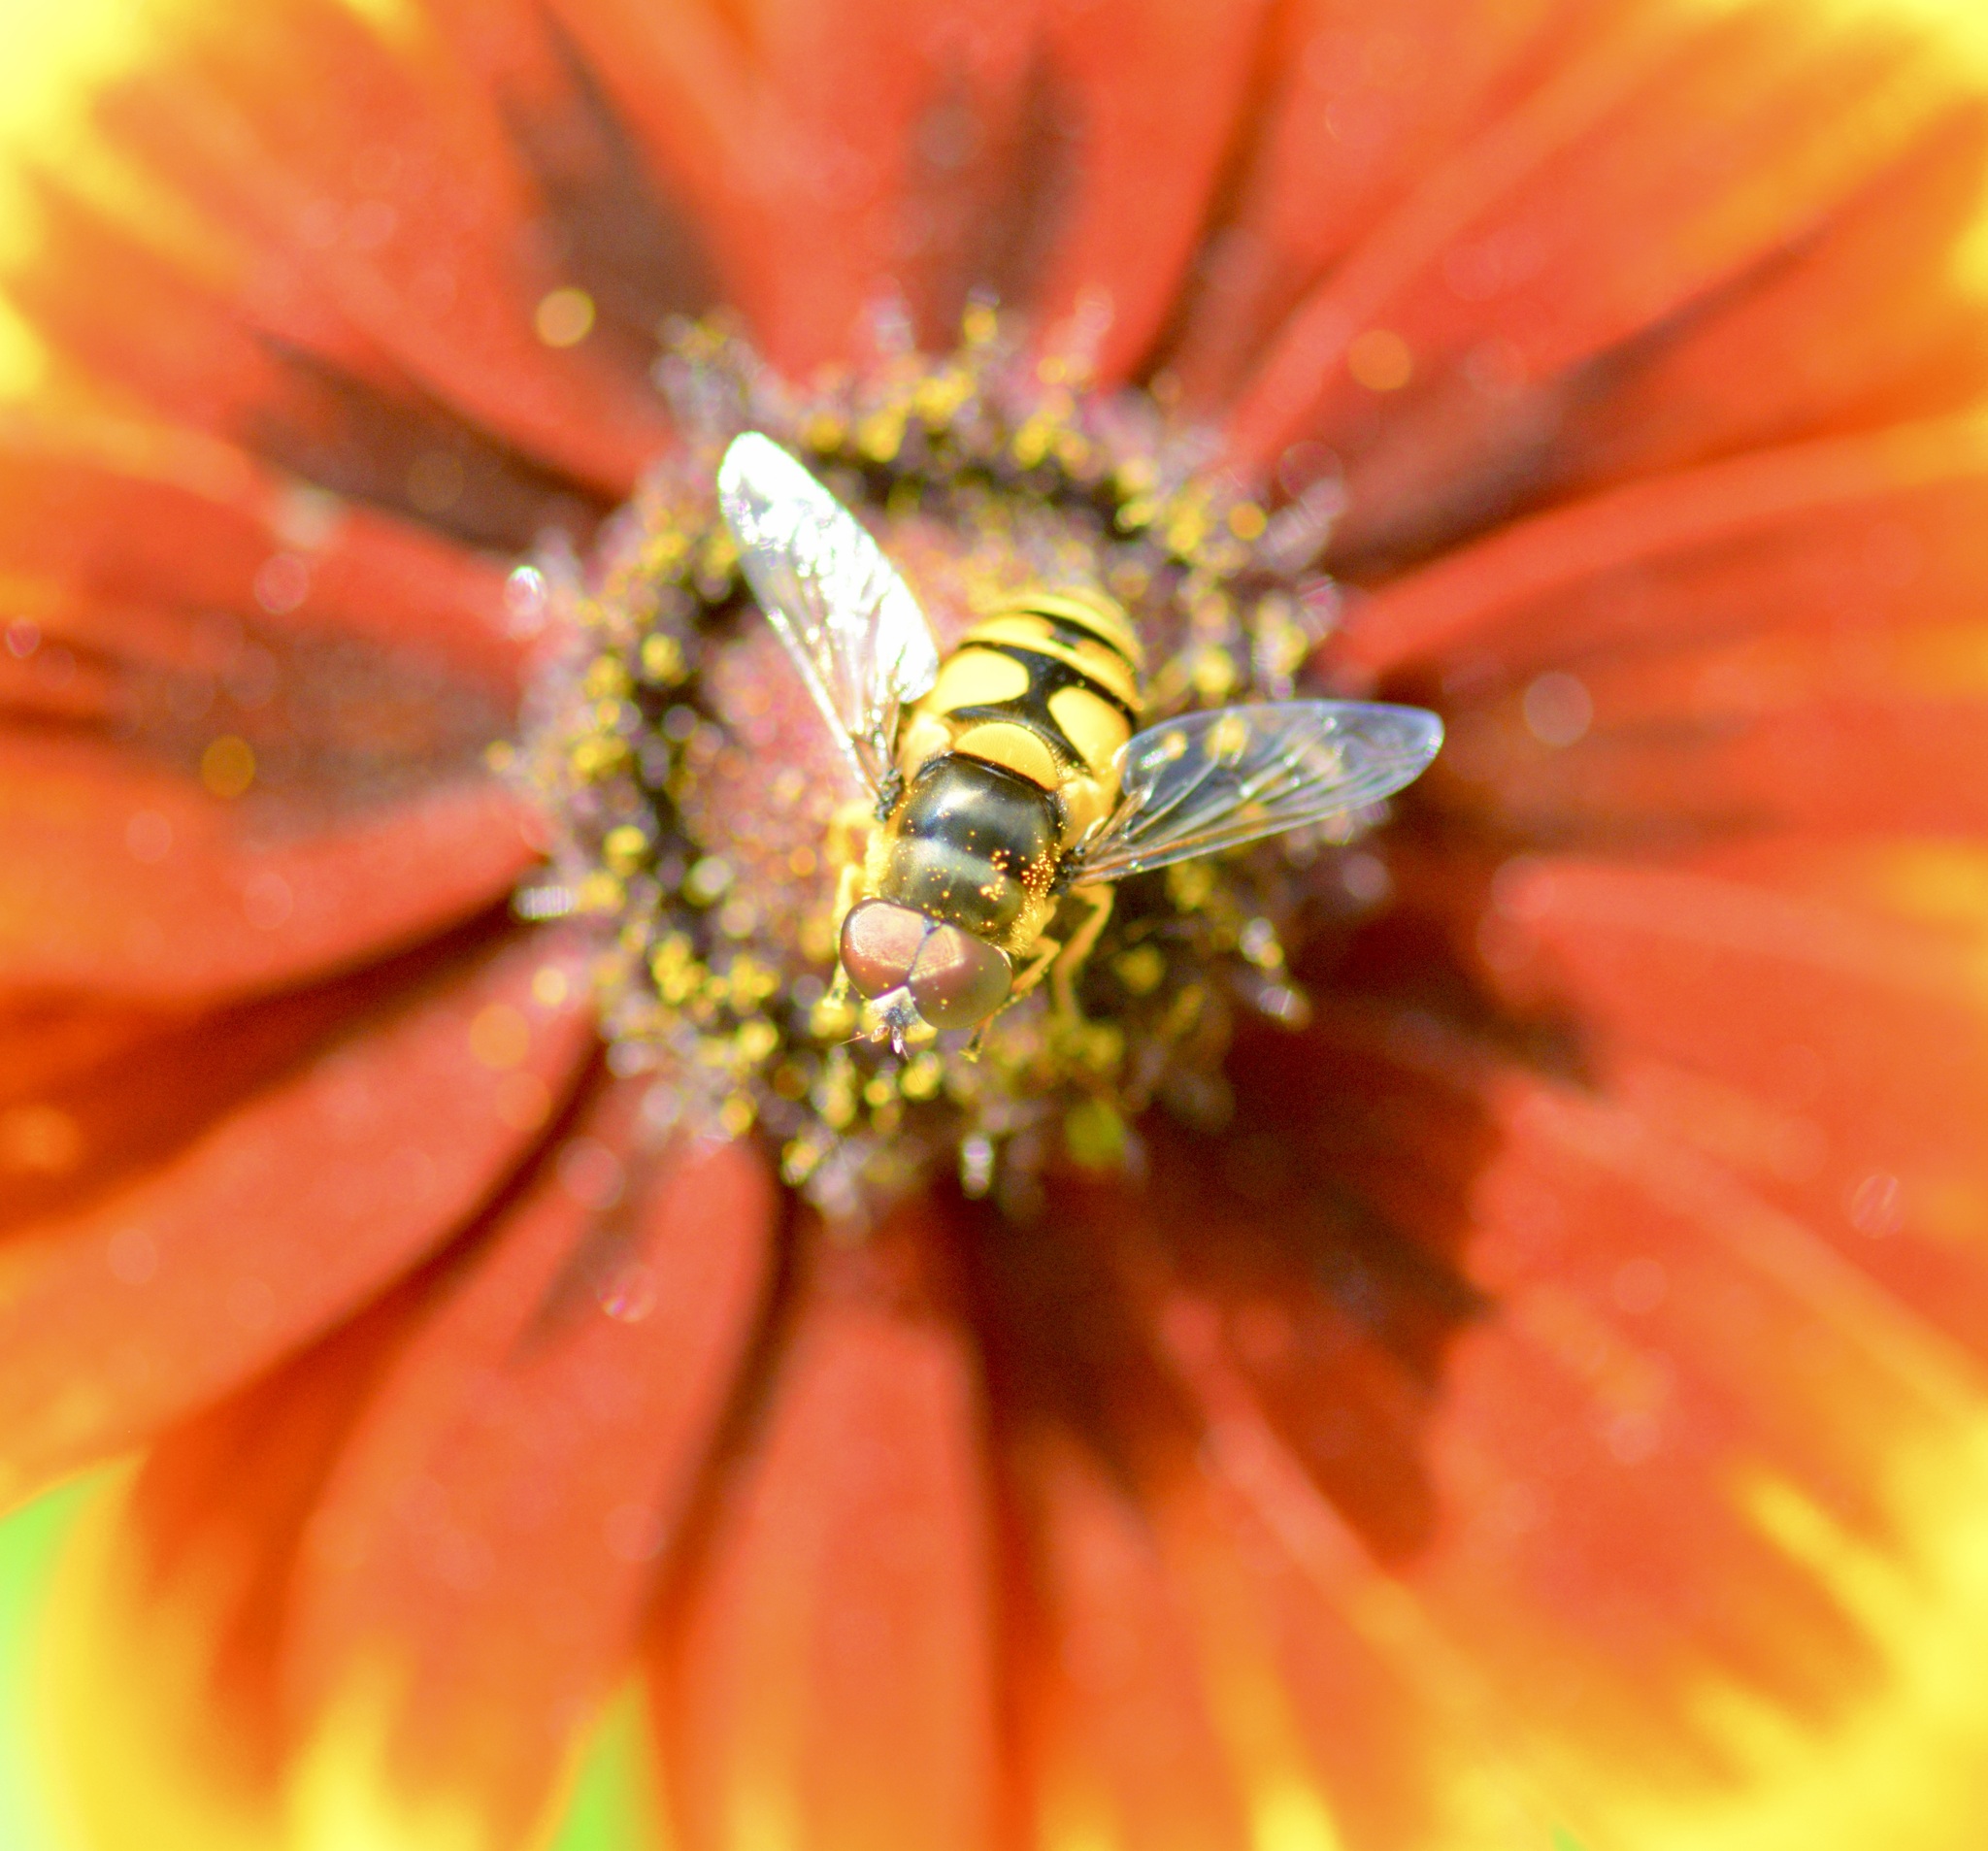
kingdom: Animalia
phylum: Arthropoda
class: Insecta
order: Diptera
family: Syrphidae
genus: Eristalis
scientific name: Eristalis transversa
